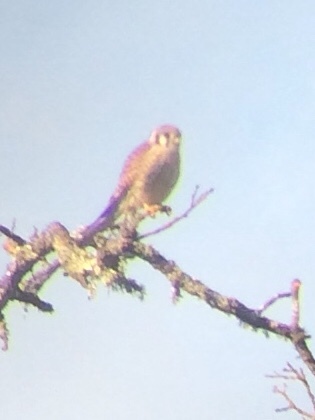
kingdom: Animalia
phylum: Chordata
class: Aves
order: Falconiformes
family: Falconidae
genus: Falco
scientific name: Falco sparverius
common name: American kestrel
